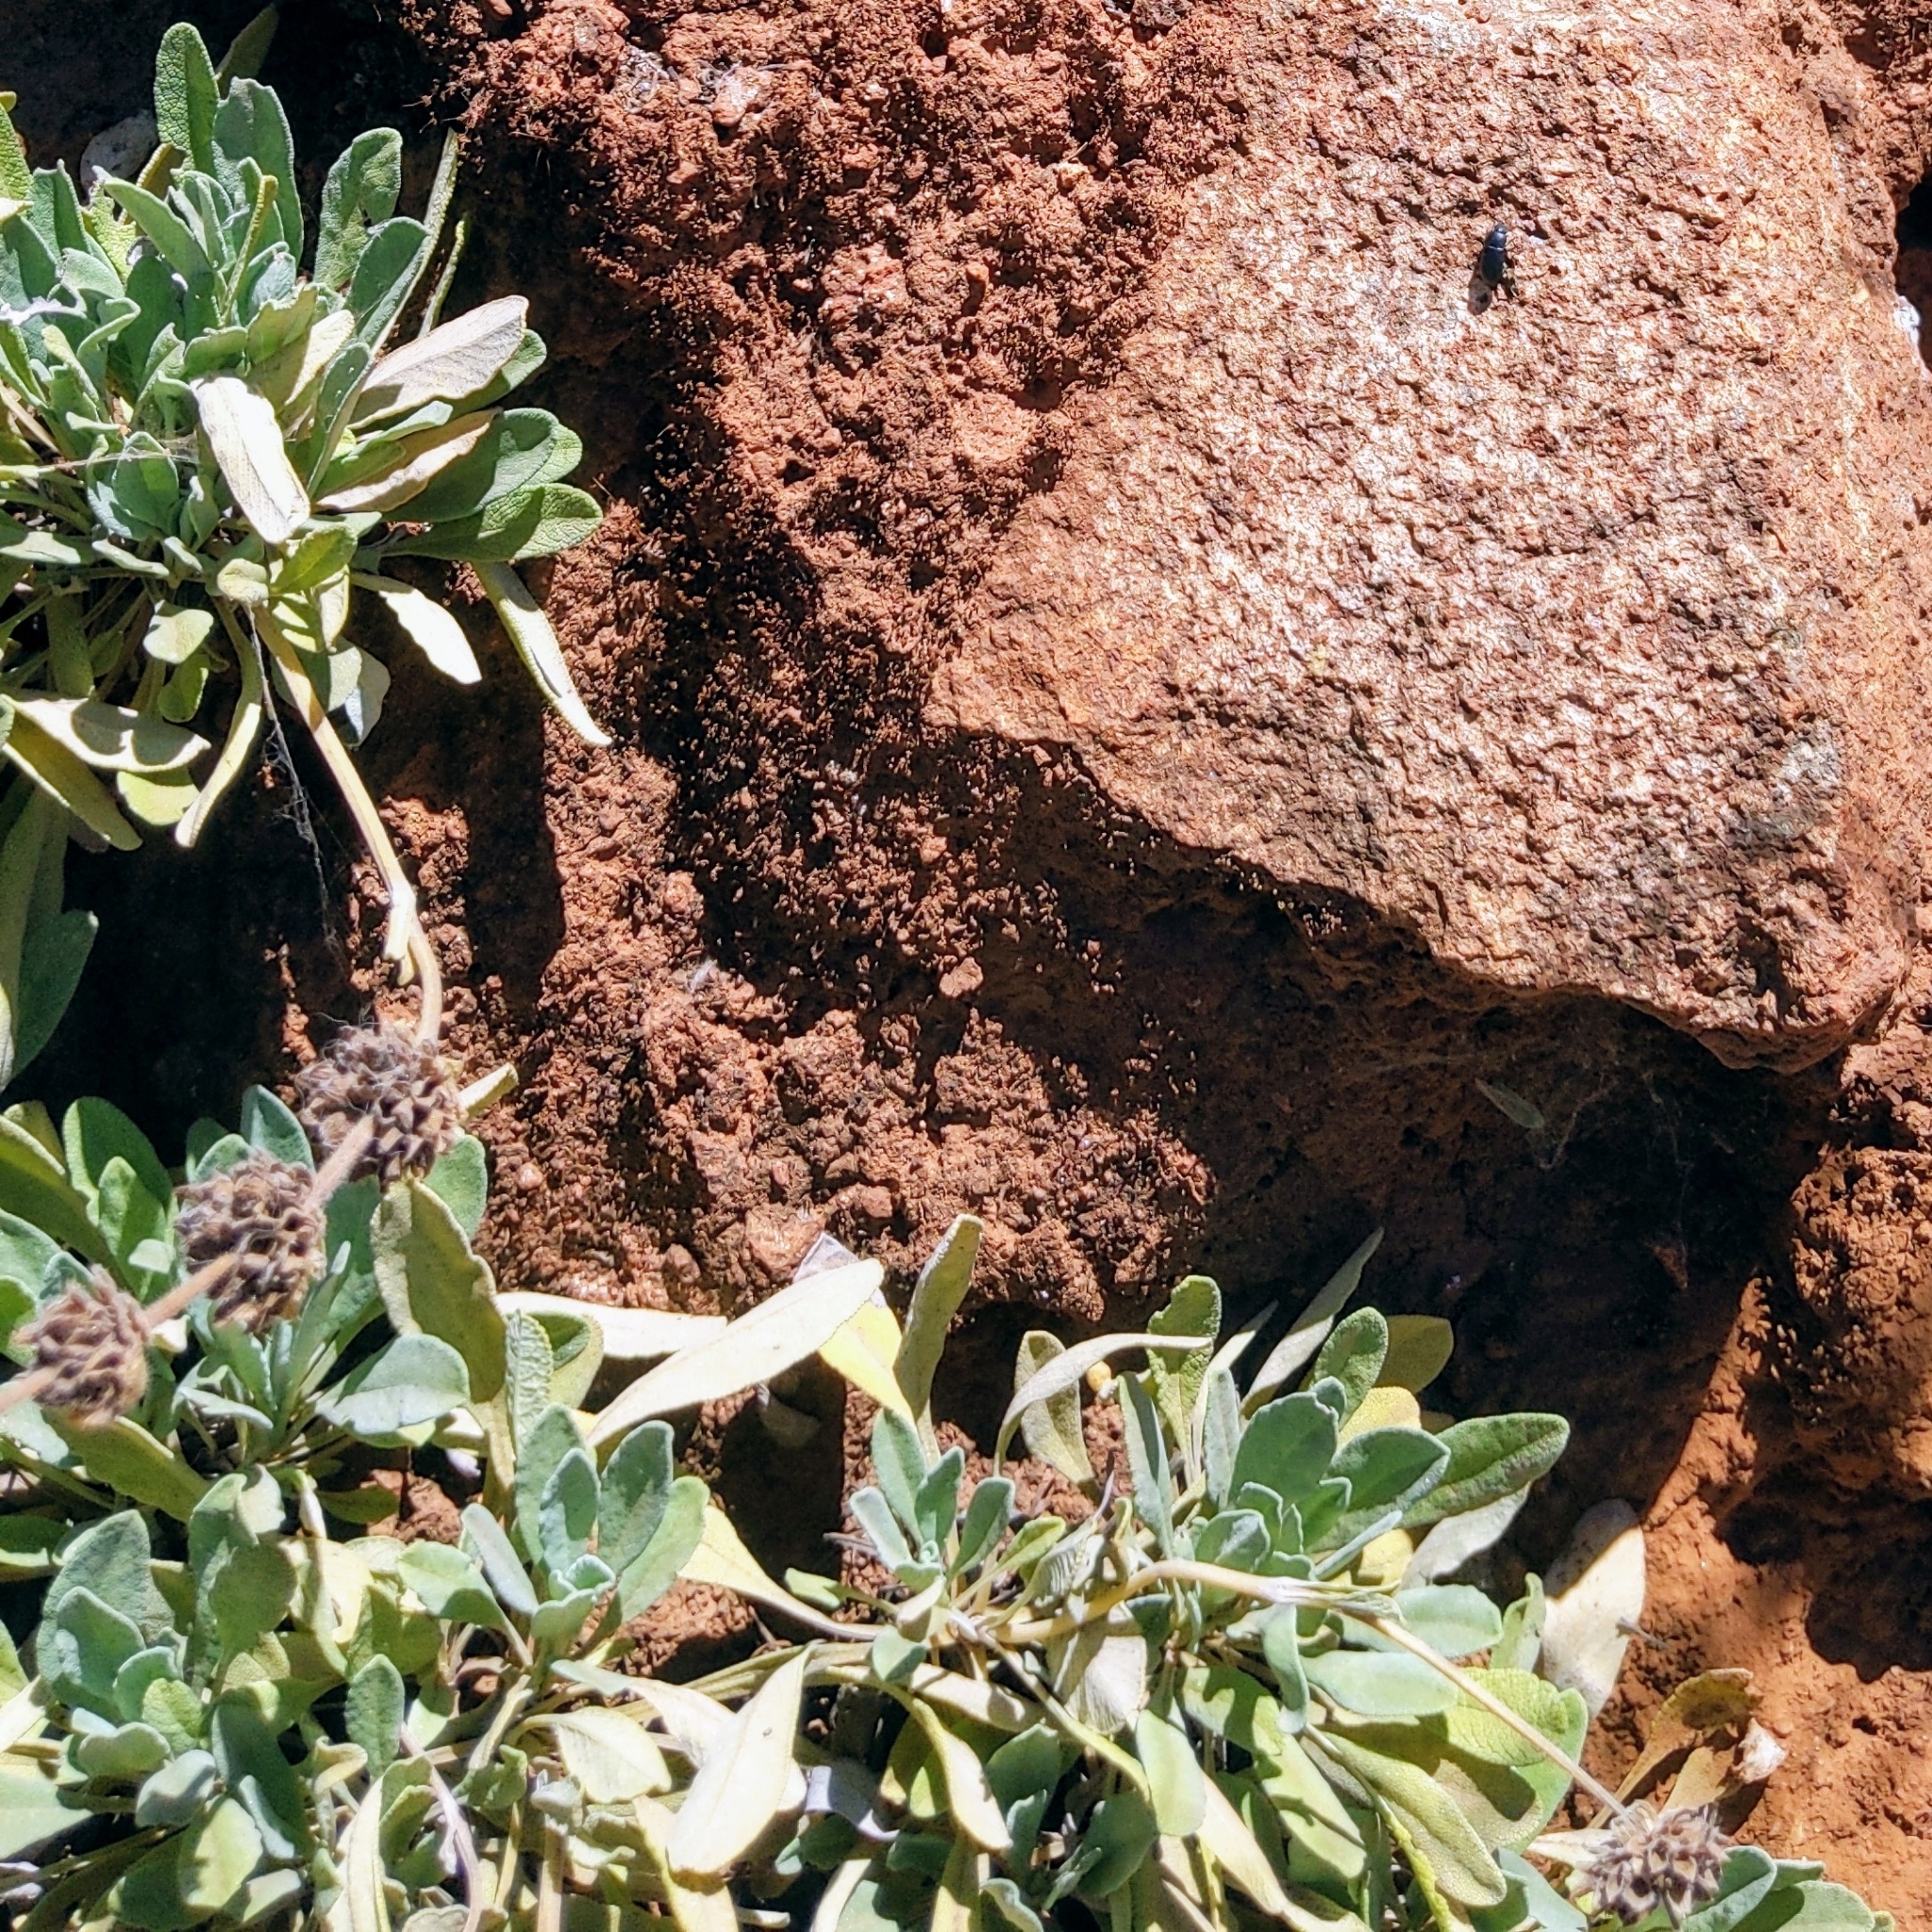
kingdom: Plantae
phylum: Tracheophyta
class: Magnoliopsida
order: Lamiales
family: Lamiaceae
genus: Salvia
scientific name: Salvia sonomensis
